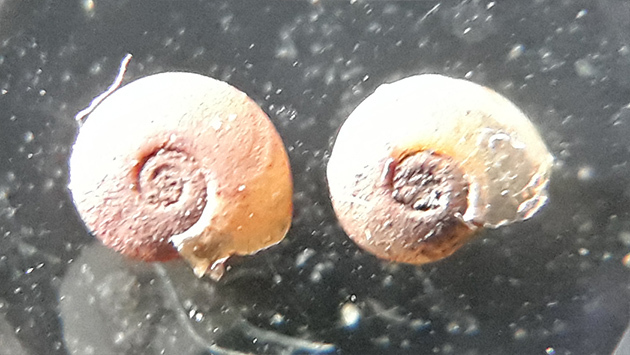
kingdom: Animalia
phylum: Mollusca
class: Gastropoda
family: Planorbidae
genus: Hippeutis
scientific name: Hippeutis complanatus
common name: Flat ramshorn
